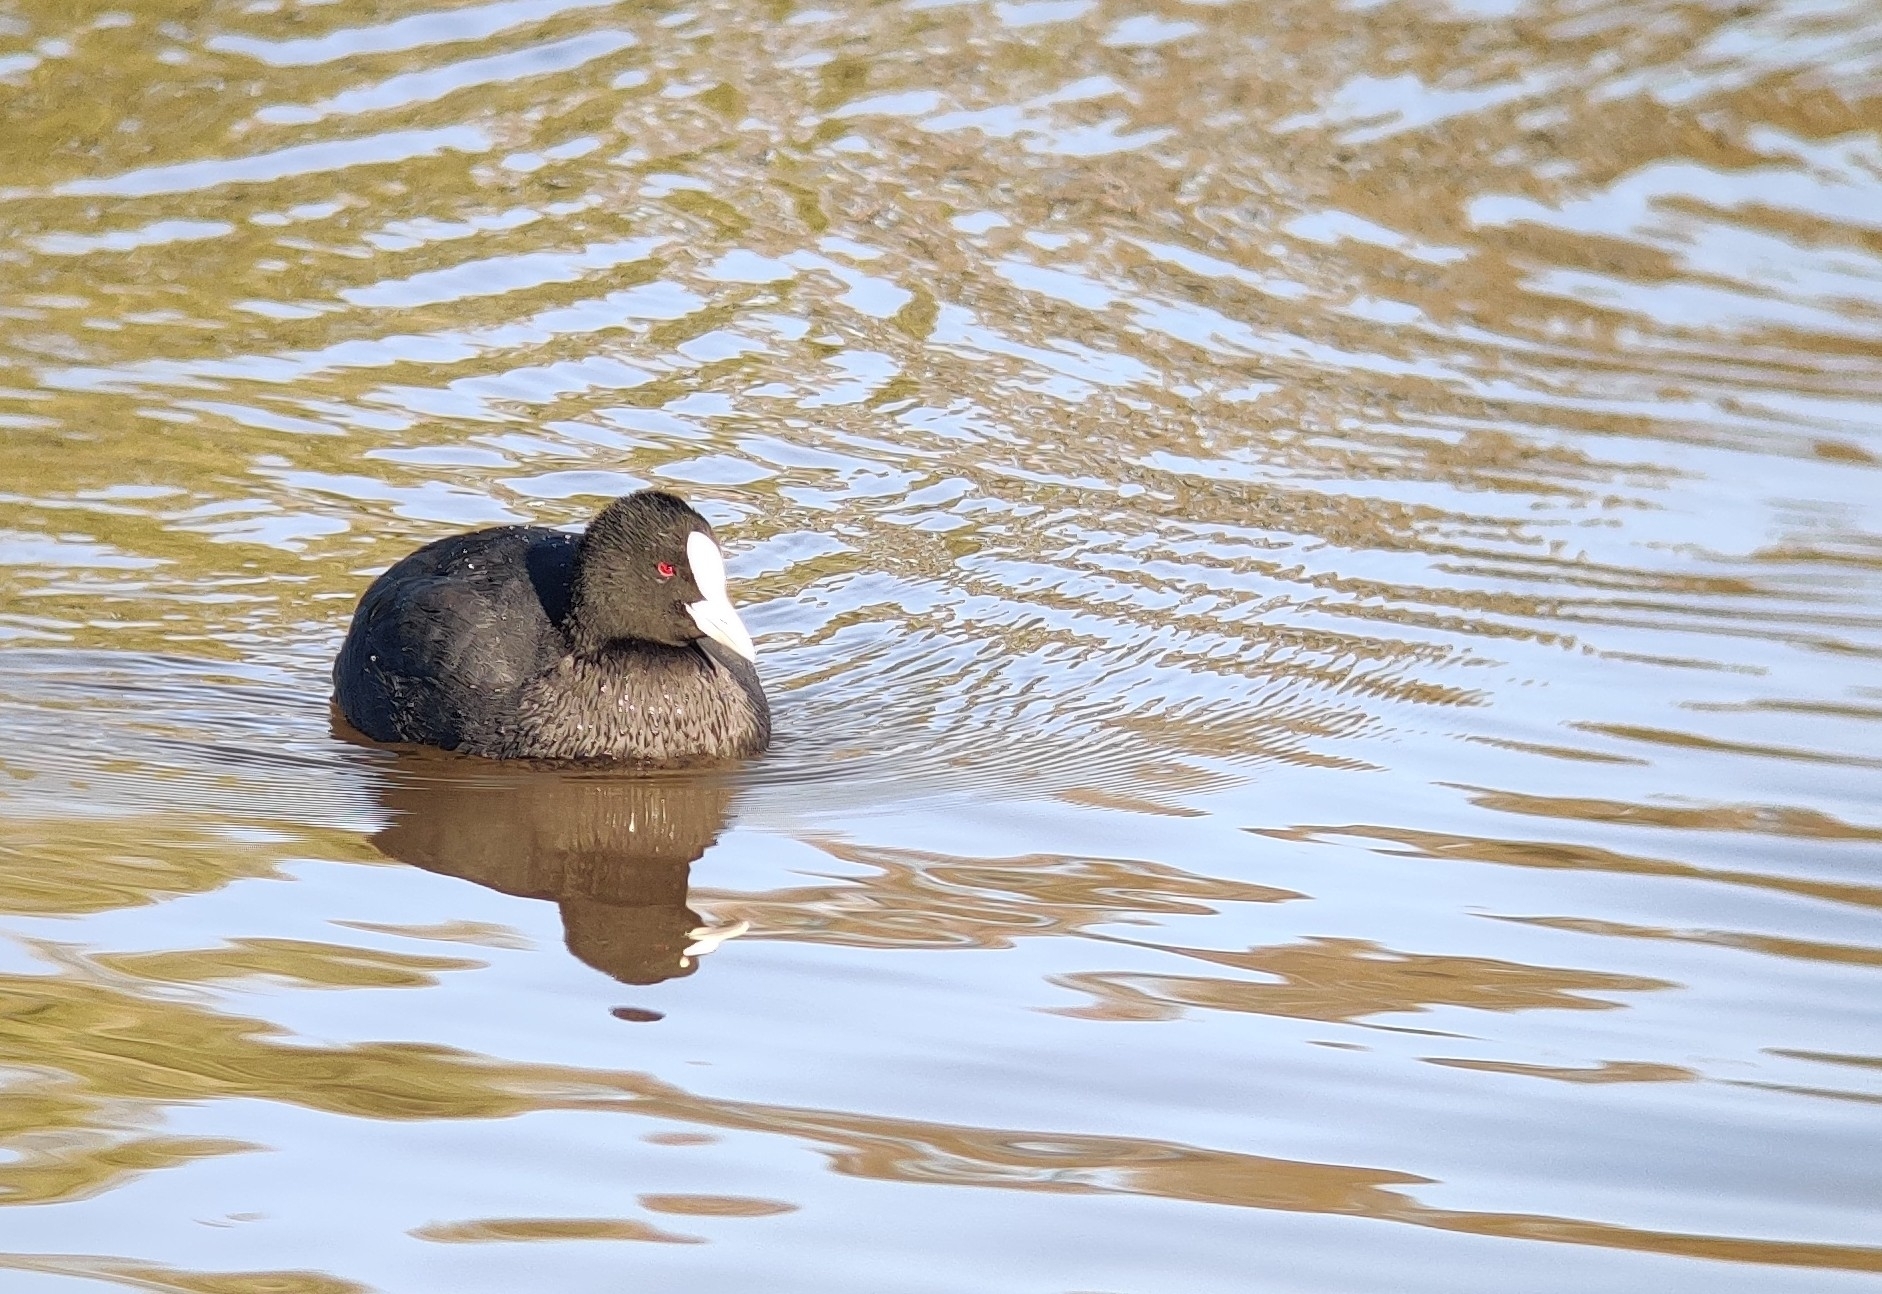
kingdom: Animalia
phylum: Chordata
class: Aves
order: Gruiformes
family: Rallidae
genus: Fulica
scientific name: Fulica atra
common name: Eurasian coot
